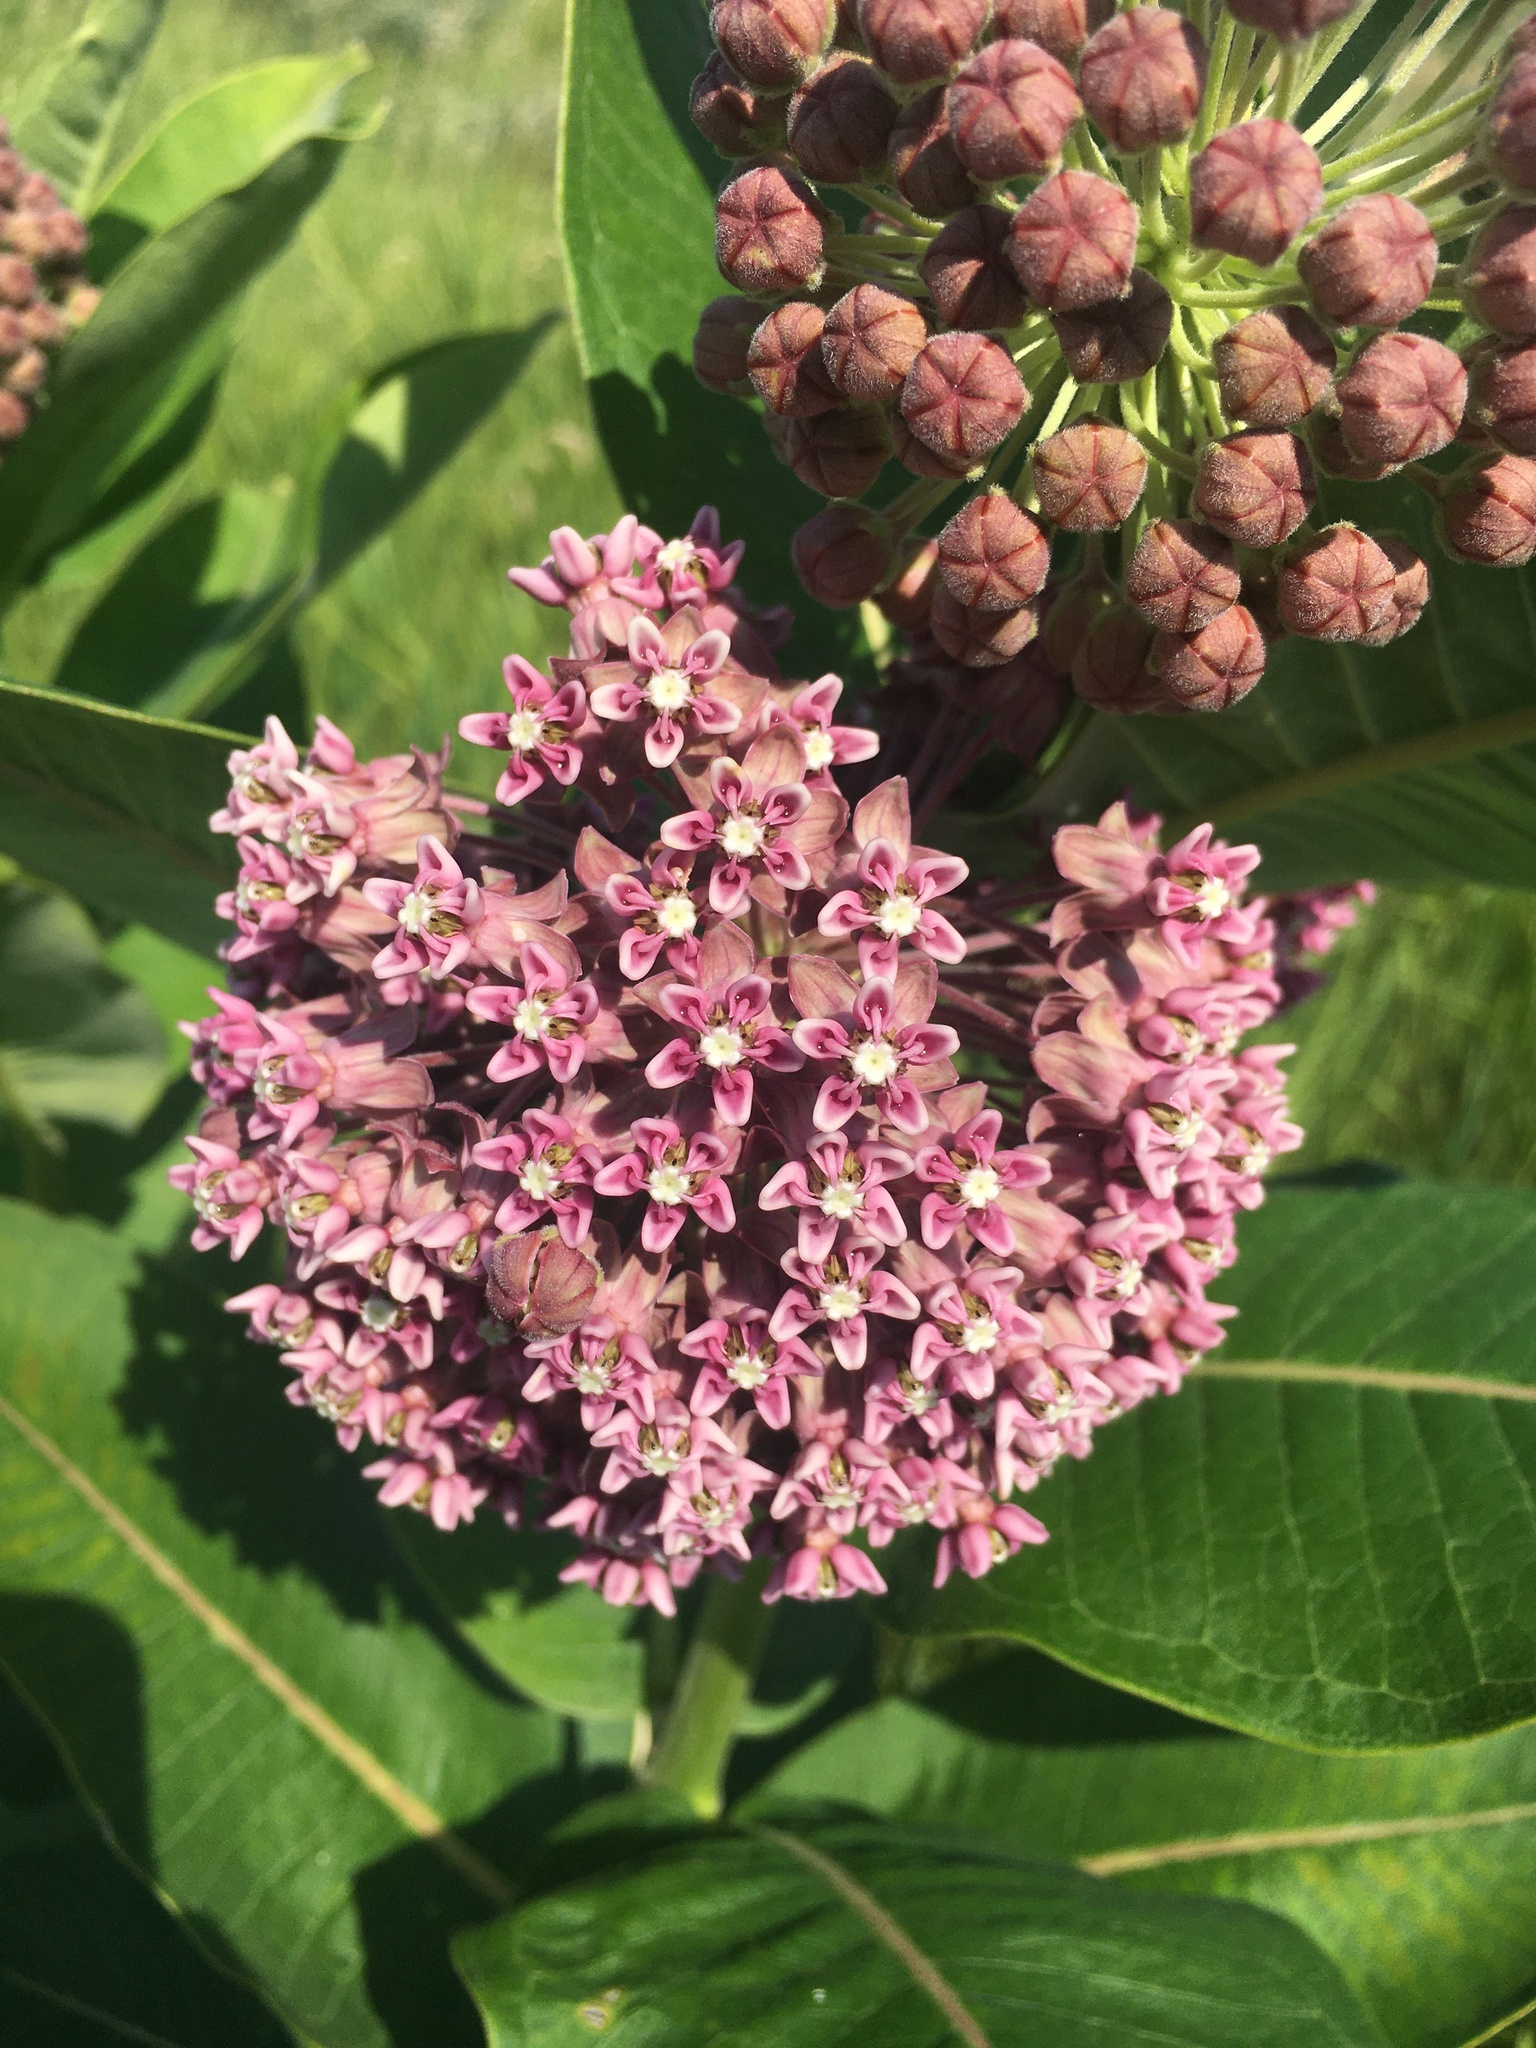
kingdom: Plantae
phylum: Tracheophyta
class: Magnoliopsida
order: Gentianales
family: Apocynaceae
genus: Asclepias
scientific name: Asclepias syriaca
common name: Common milkweed
